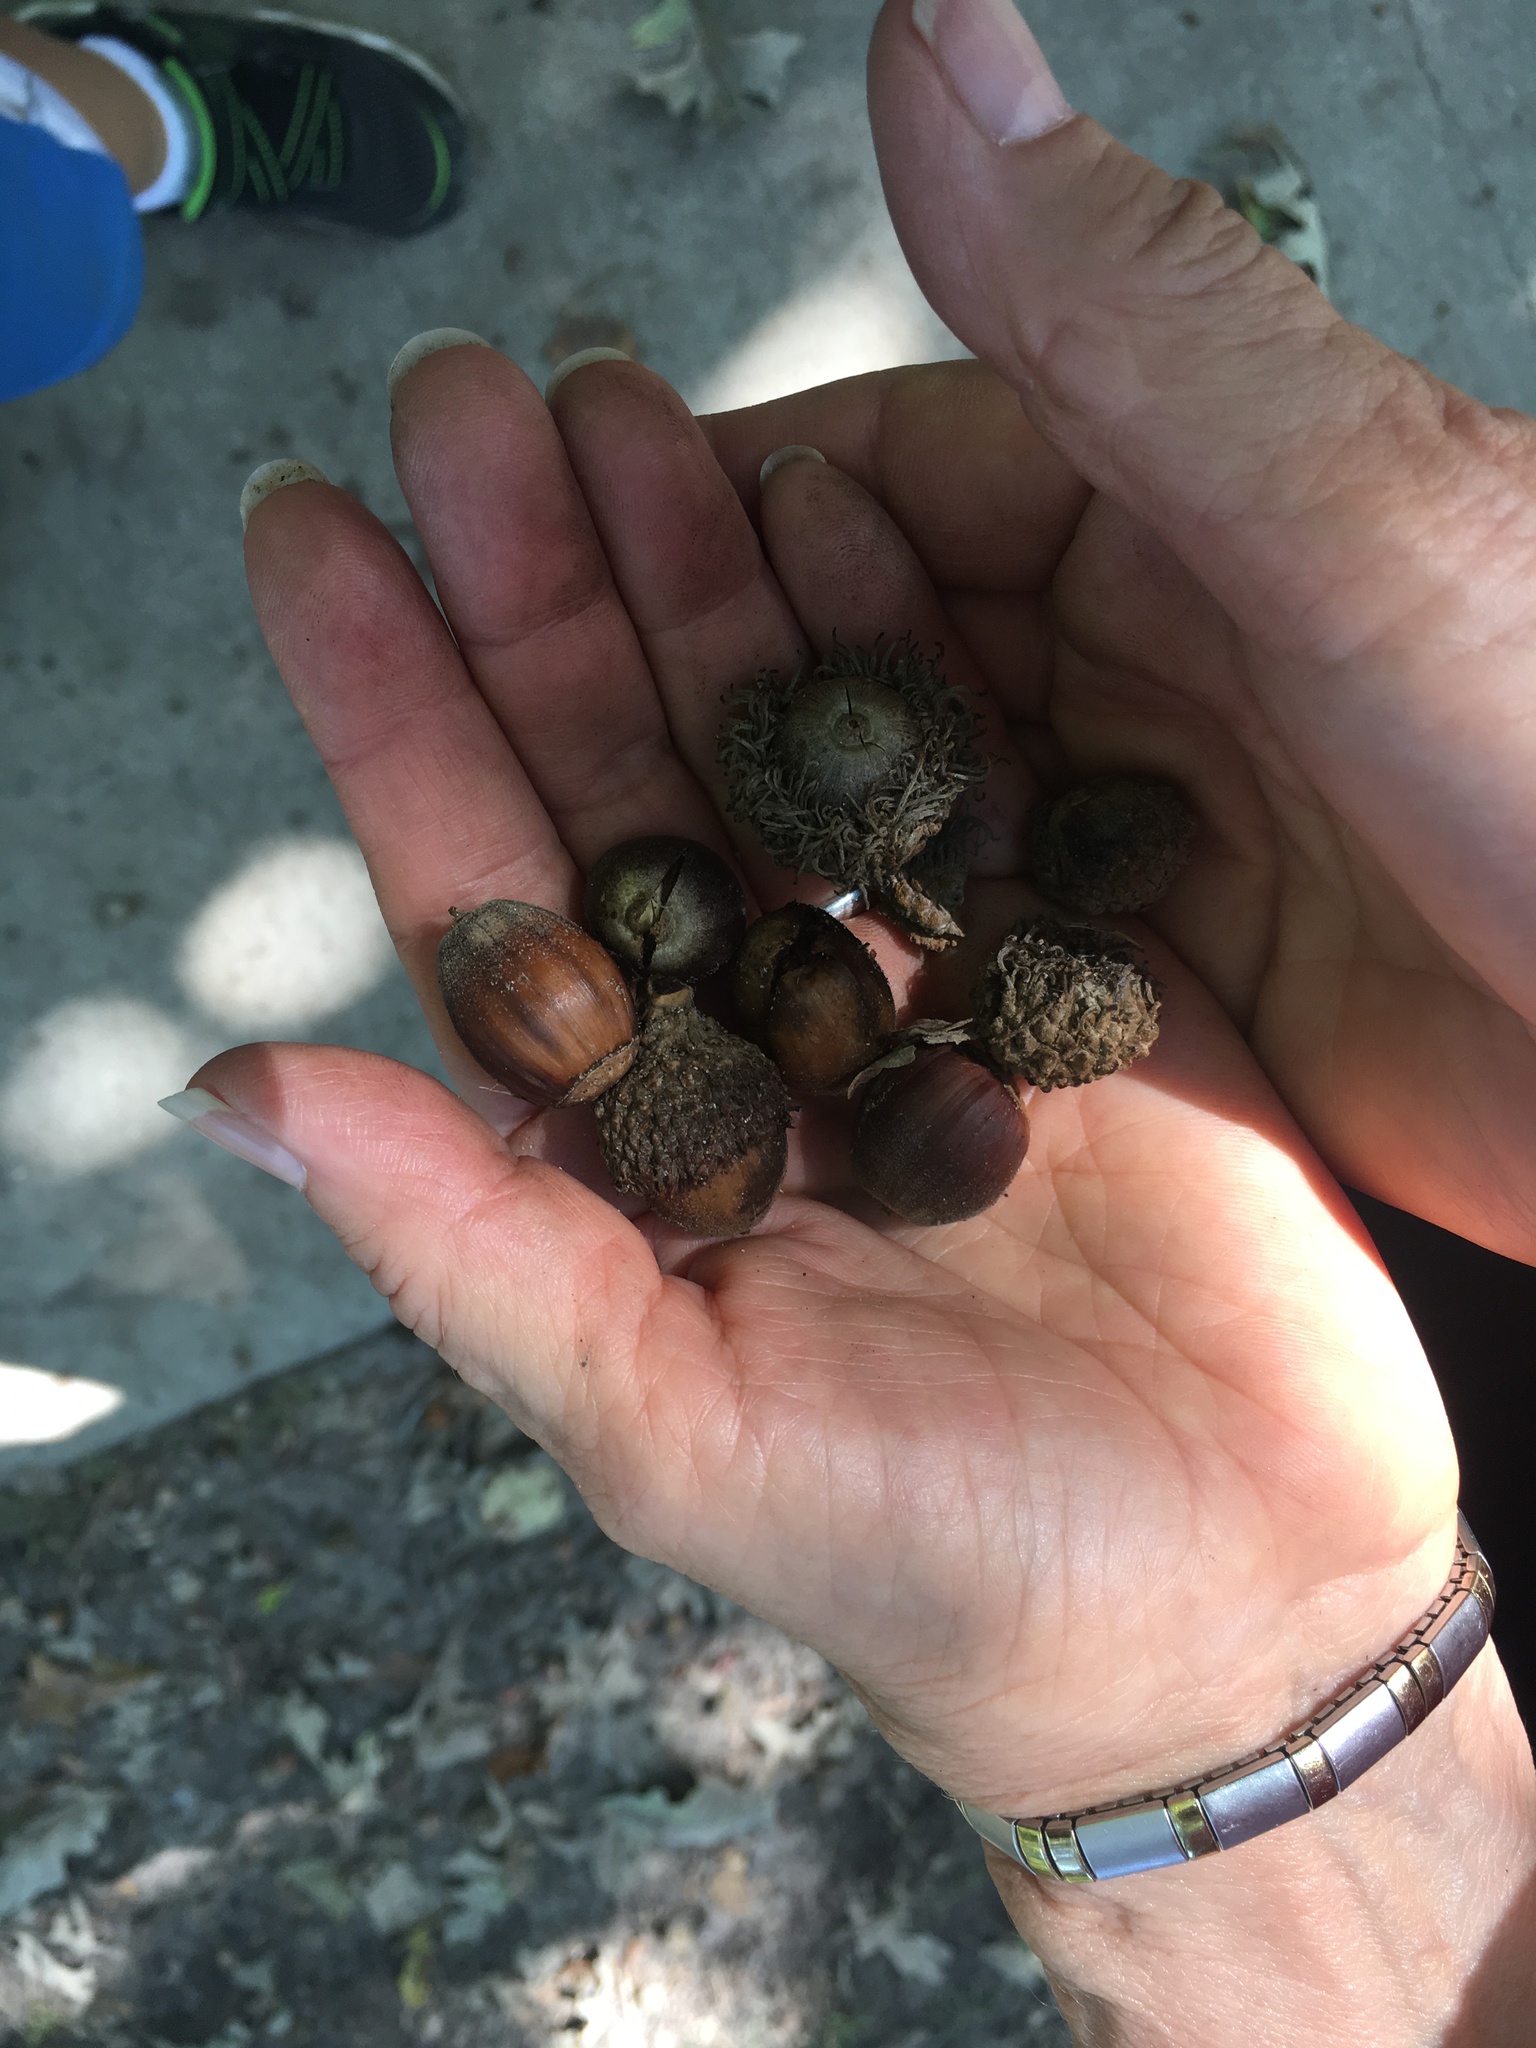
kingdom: Plantae
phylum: Tracheophyta
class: Magnoliopsida
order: Fagales
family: Fagaceae
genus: Quercus
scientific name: Quercus macrocarpa
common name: Bur oak
